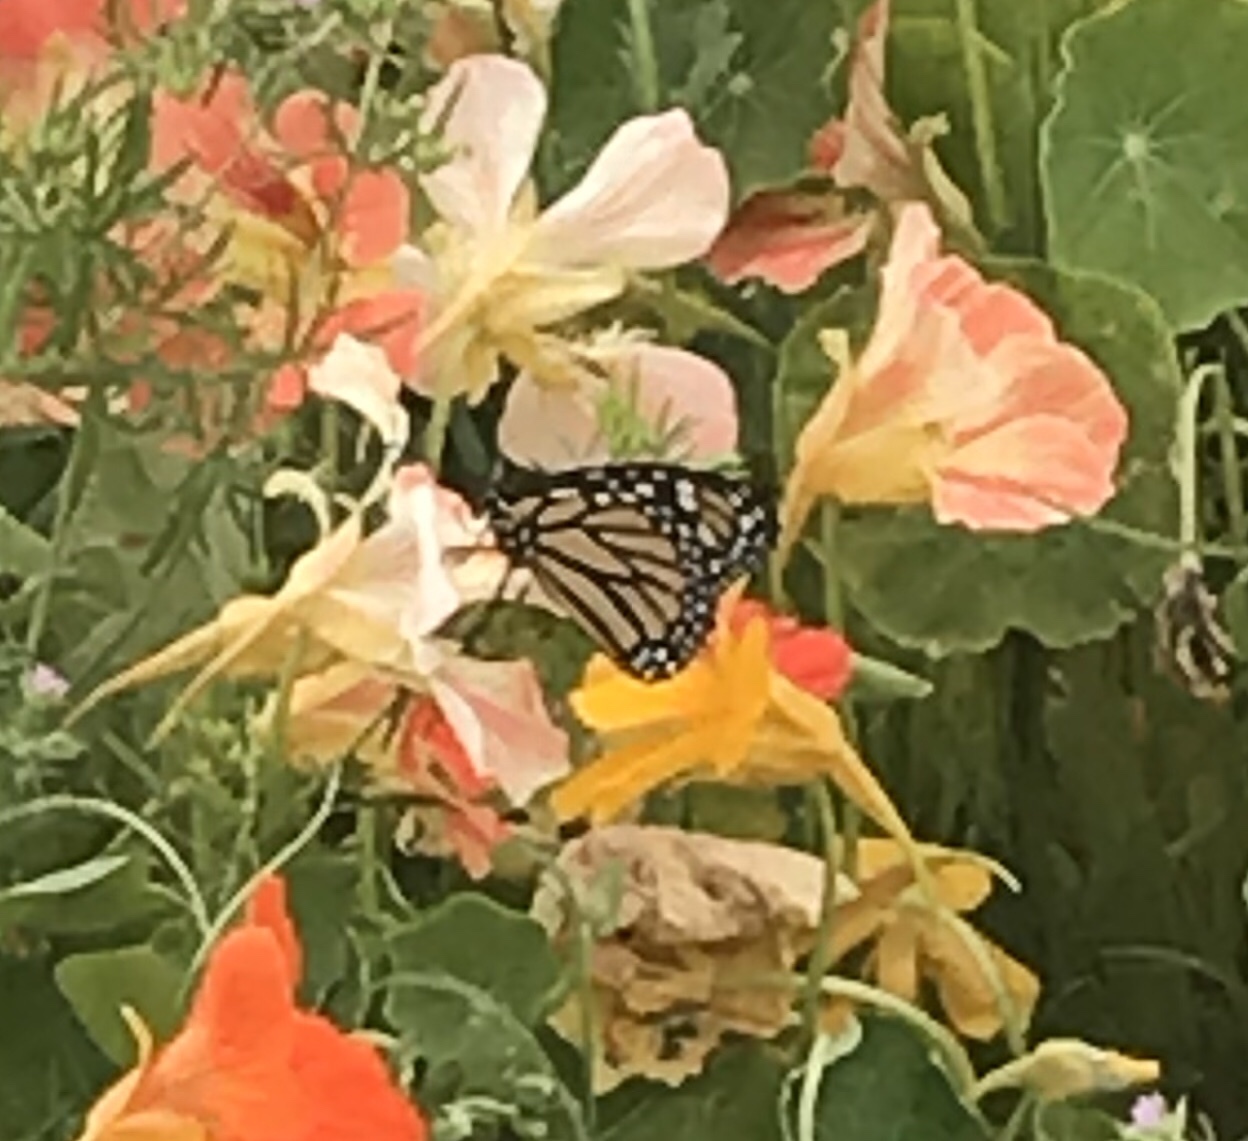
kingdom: Animalia
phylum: Arthropoda
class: Insecta
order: Lepidoptera
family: Nymphalidae
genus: Danaus
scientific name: Danaus plexippus
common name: Monarch
